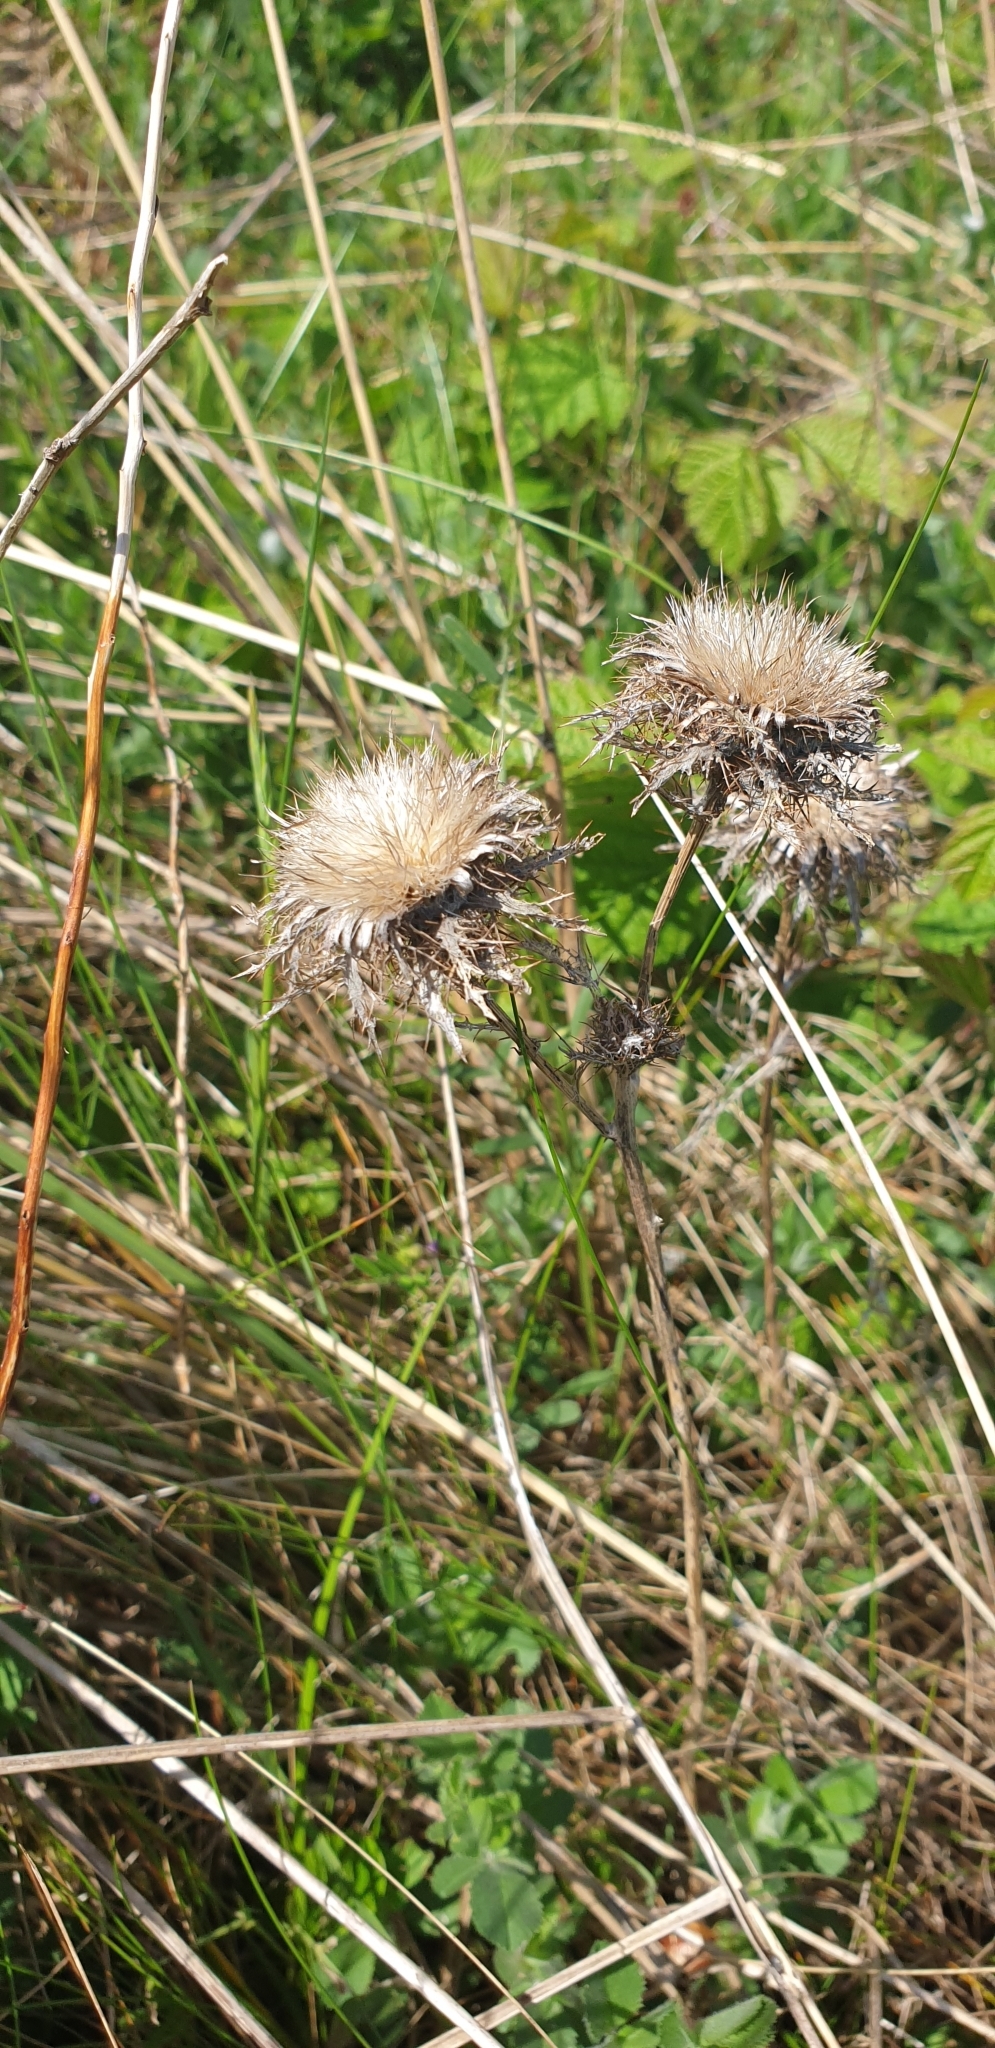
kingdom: Plantae
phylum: Tracheophyta
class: Magnoliopsida
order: Asterales
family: Asteraceae
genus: Carlina
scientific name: Carlina vulgaris
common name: Carline thistle
